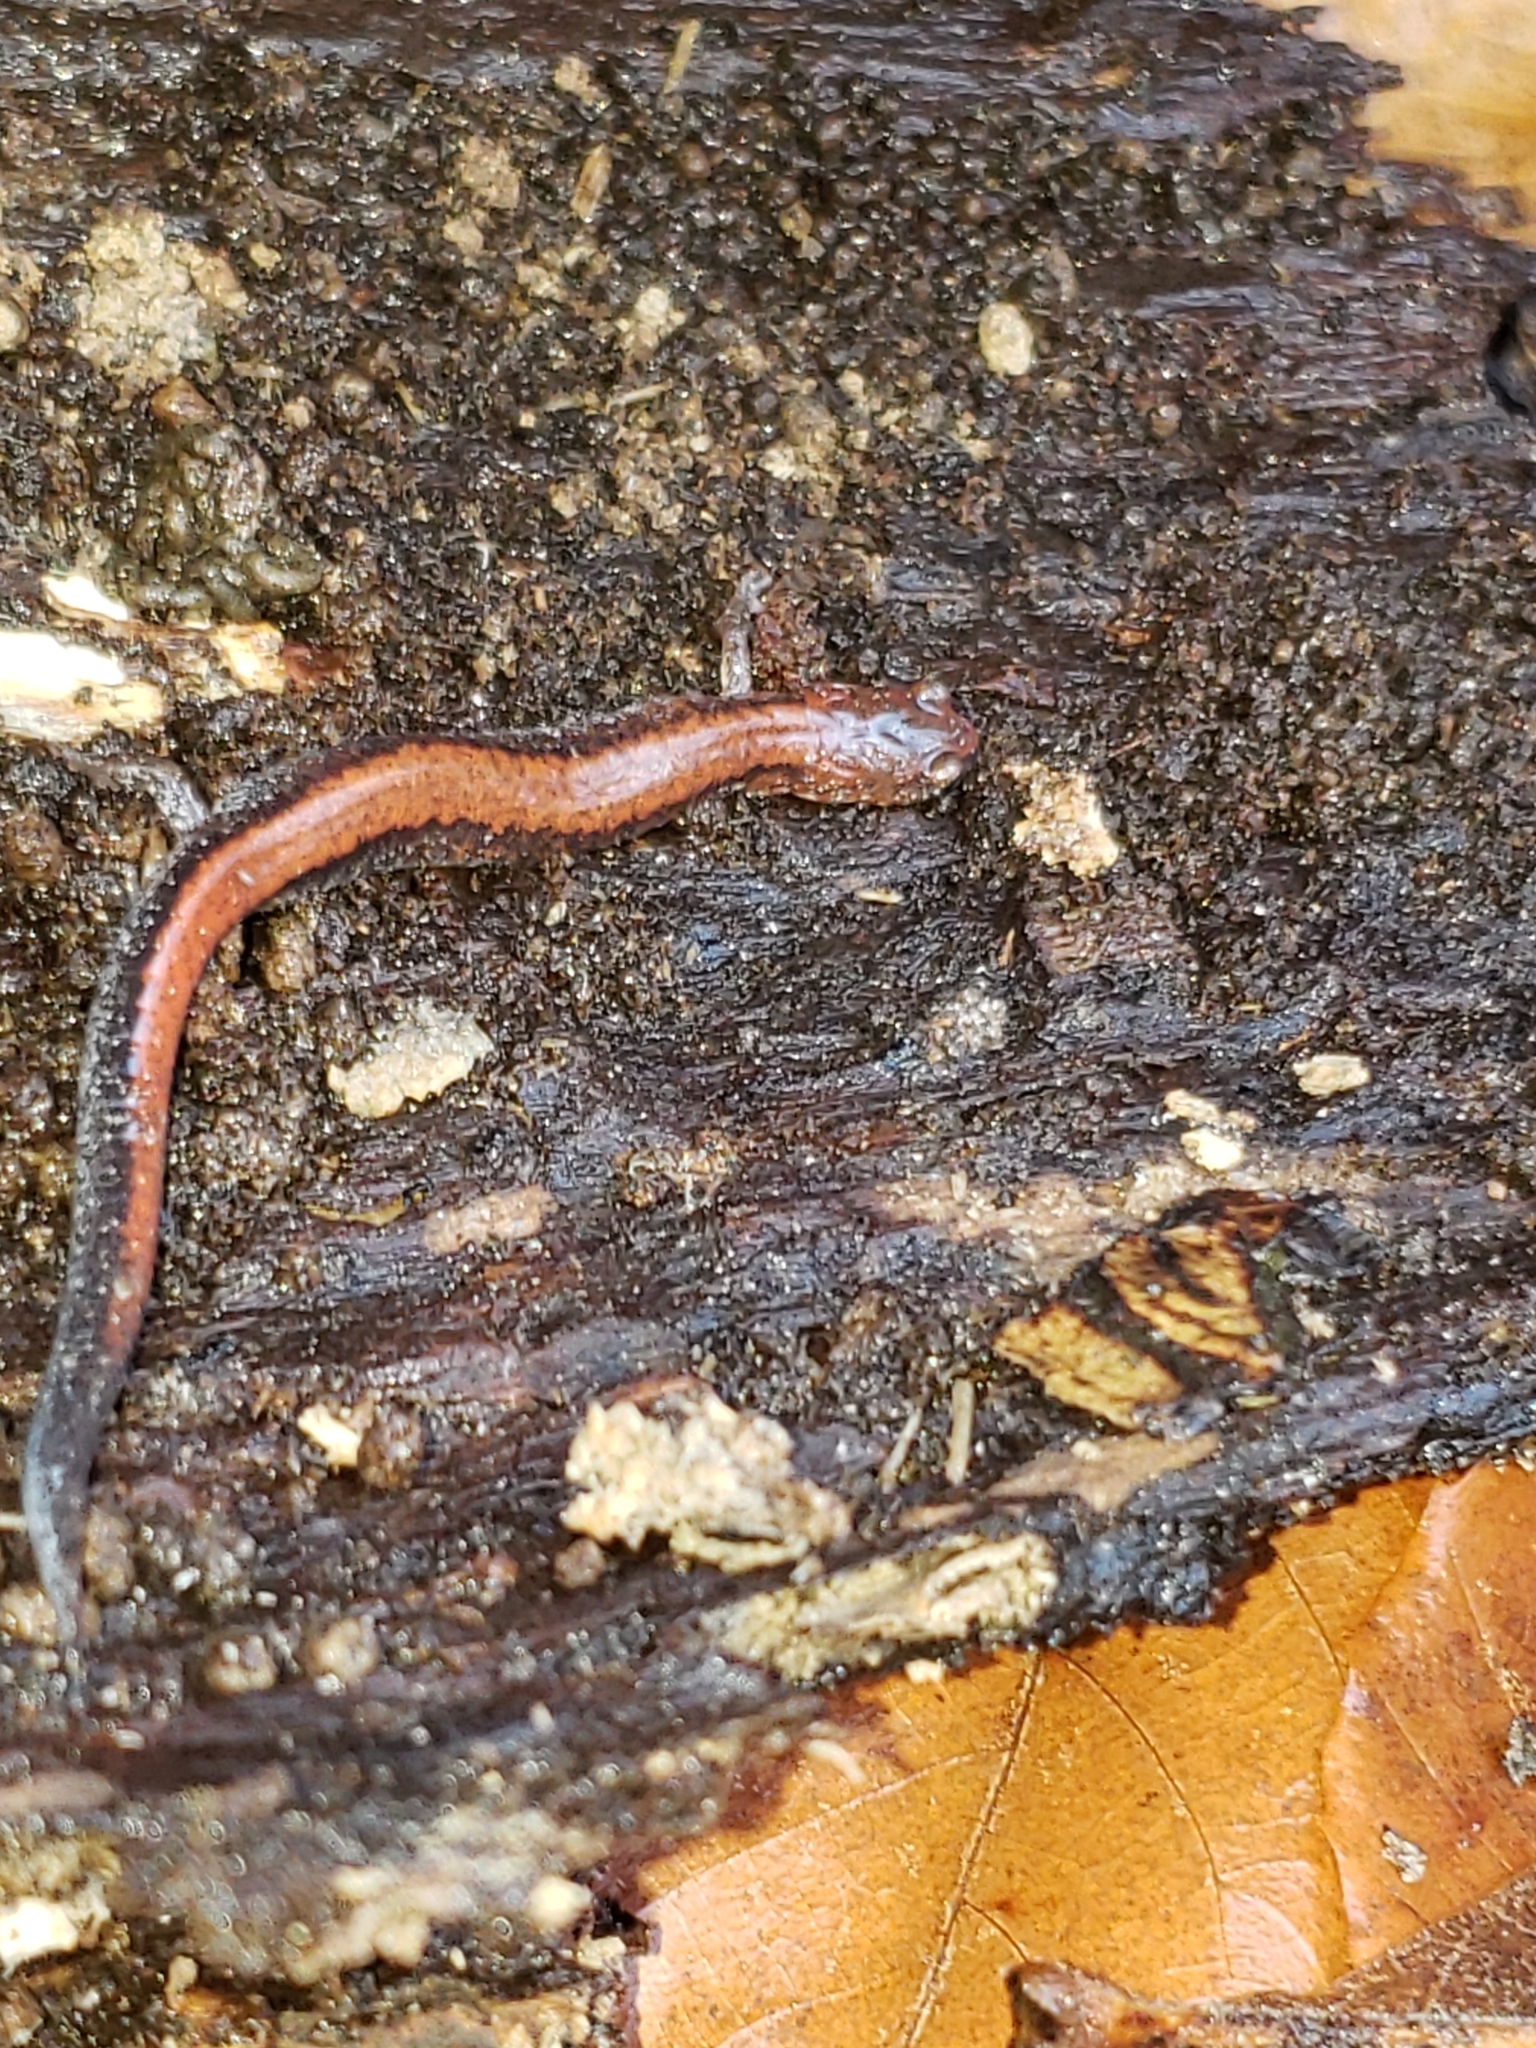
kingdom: Animalia
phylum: Chordata
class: Amphibia
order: Caudata
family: Plethodontidae
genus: Plethodon
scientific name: Plethodon cinereus
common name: Redback salamander
